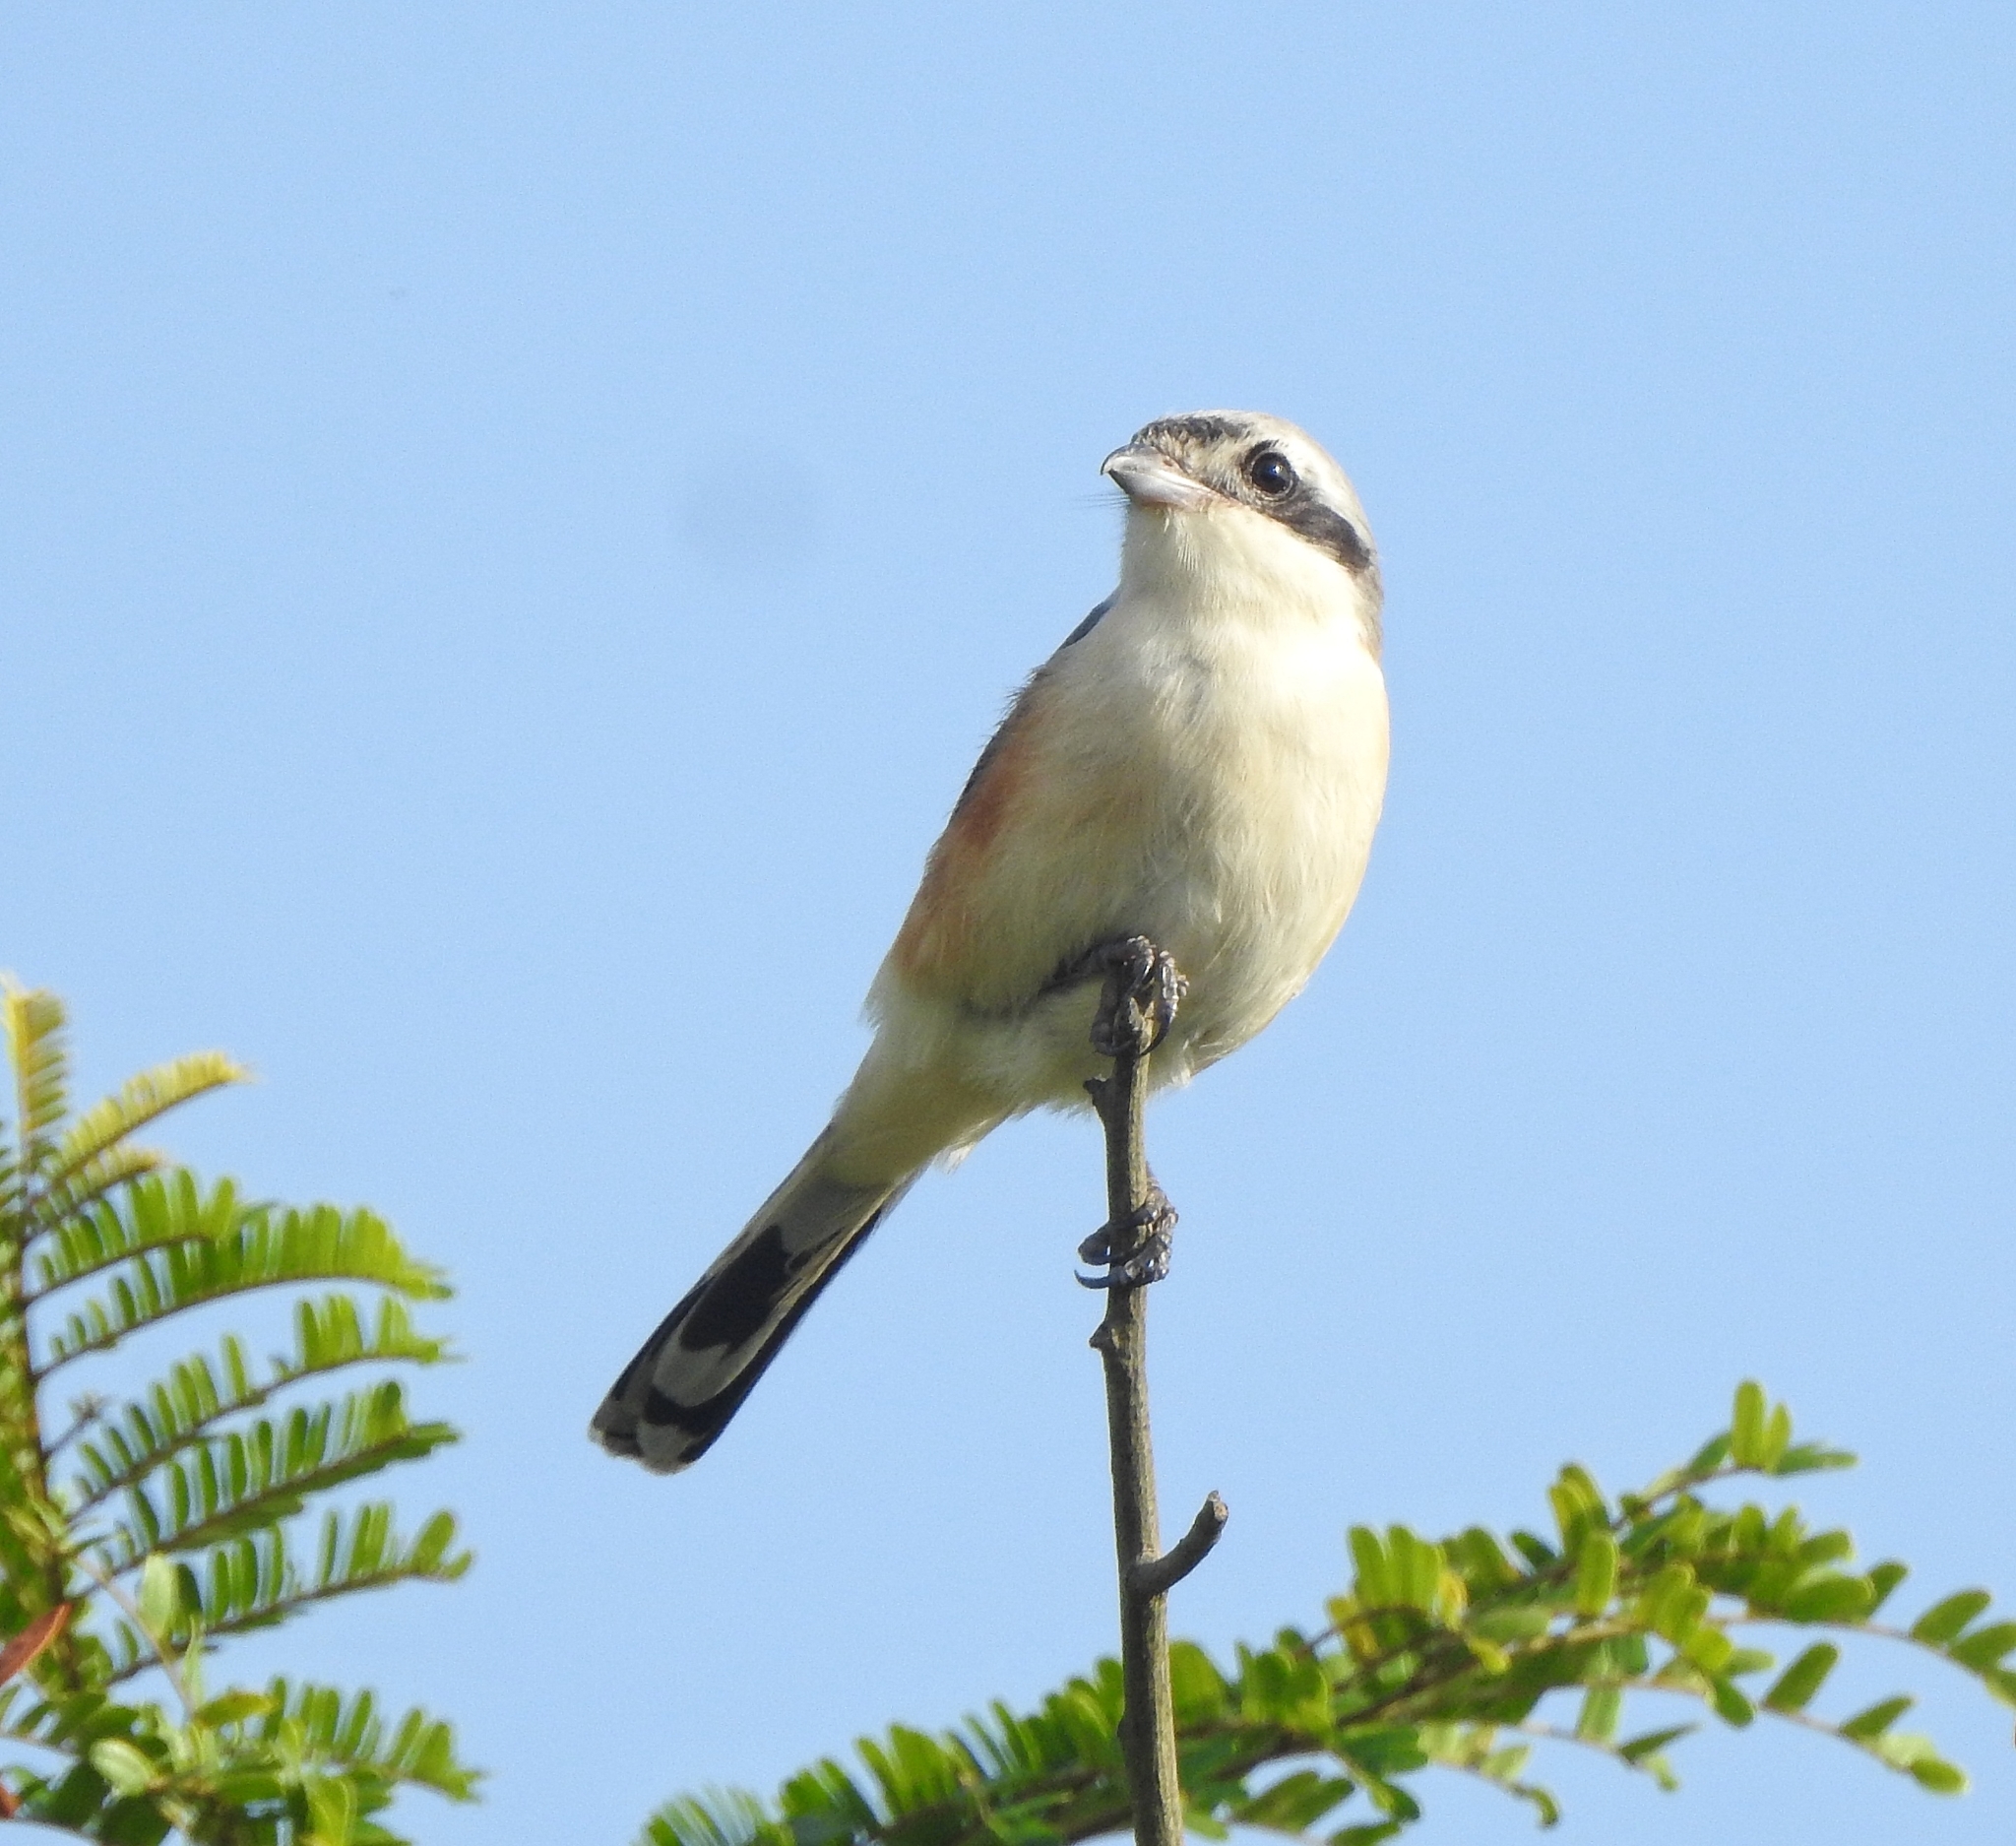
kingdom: Animalia
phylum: Chordata
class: Aves
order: Passeriformes
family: Laniidae
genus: Lanius
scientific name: Lanius vittatus
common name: Bay-backed shrike
